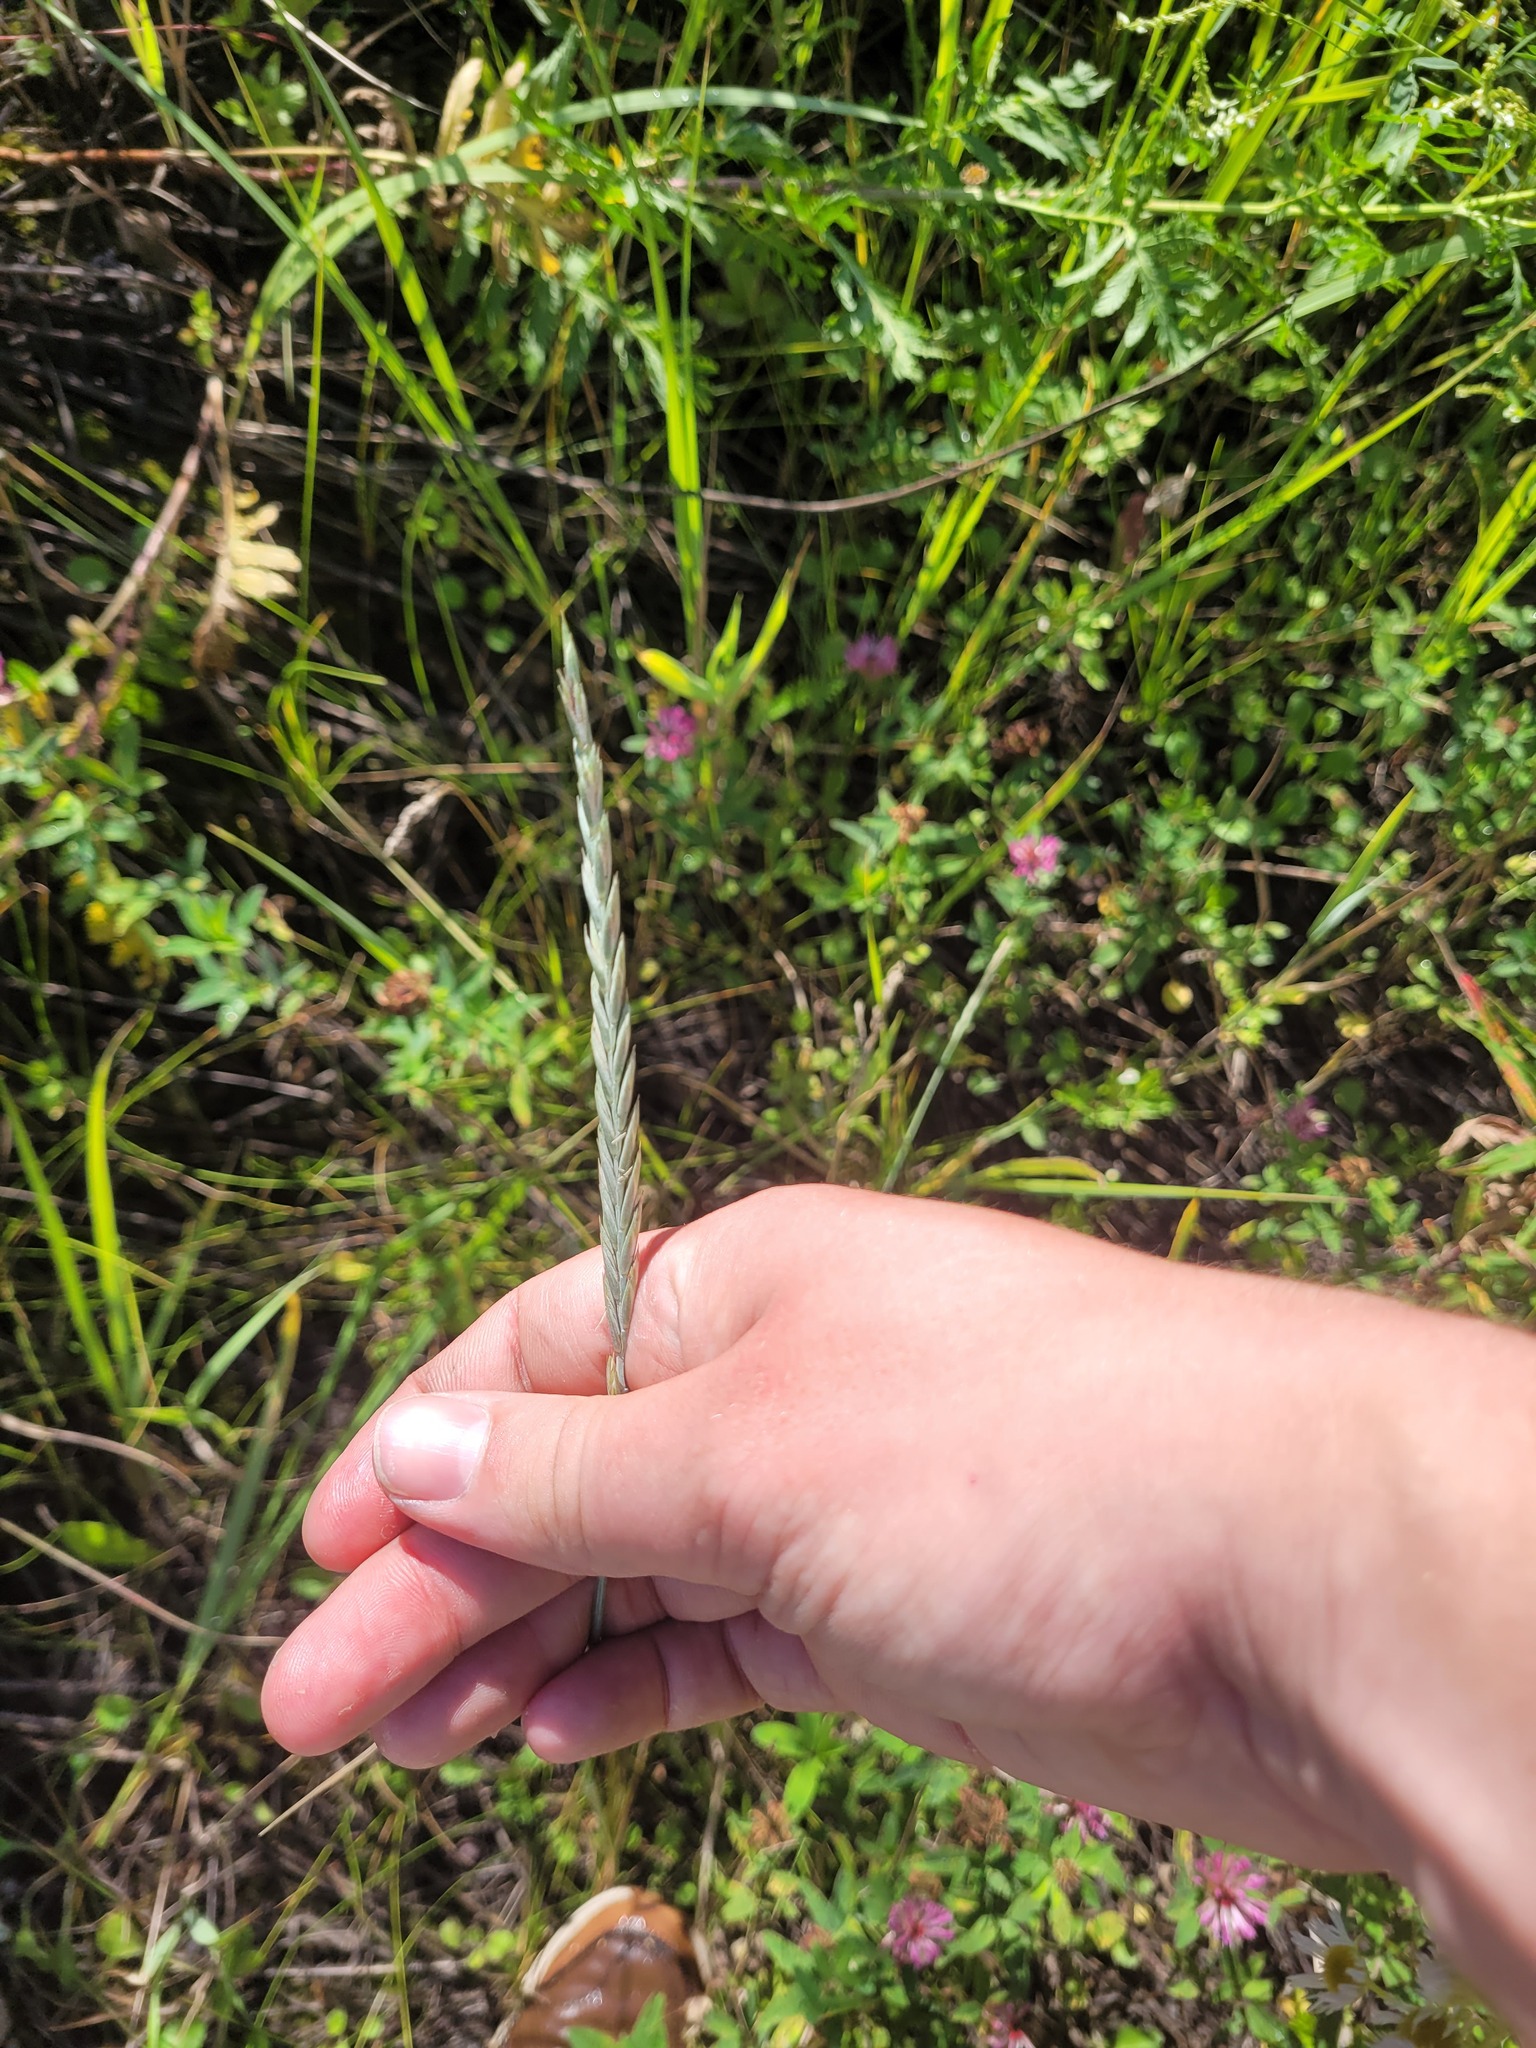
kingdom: Plantae
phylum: Tracheophyta
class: Liliopsida
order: Poales
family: Poaceae
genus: Elymus
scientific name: Elymus repens
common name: Quackgrass
